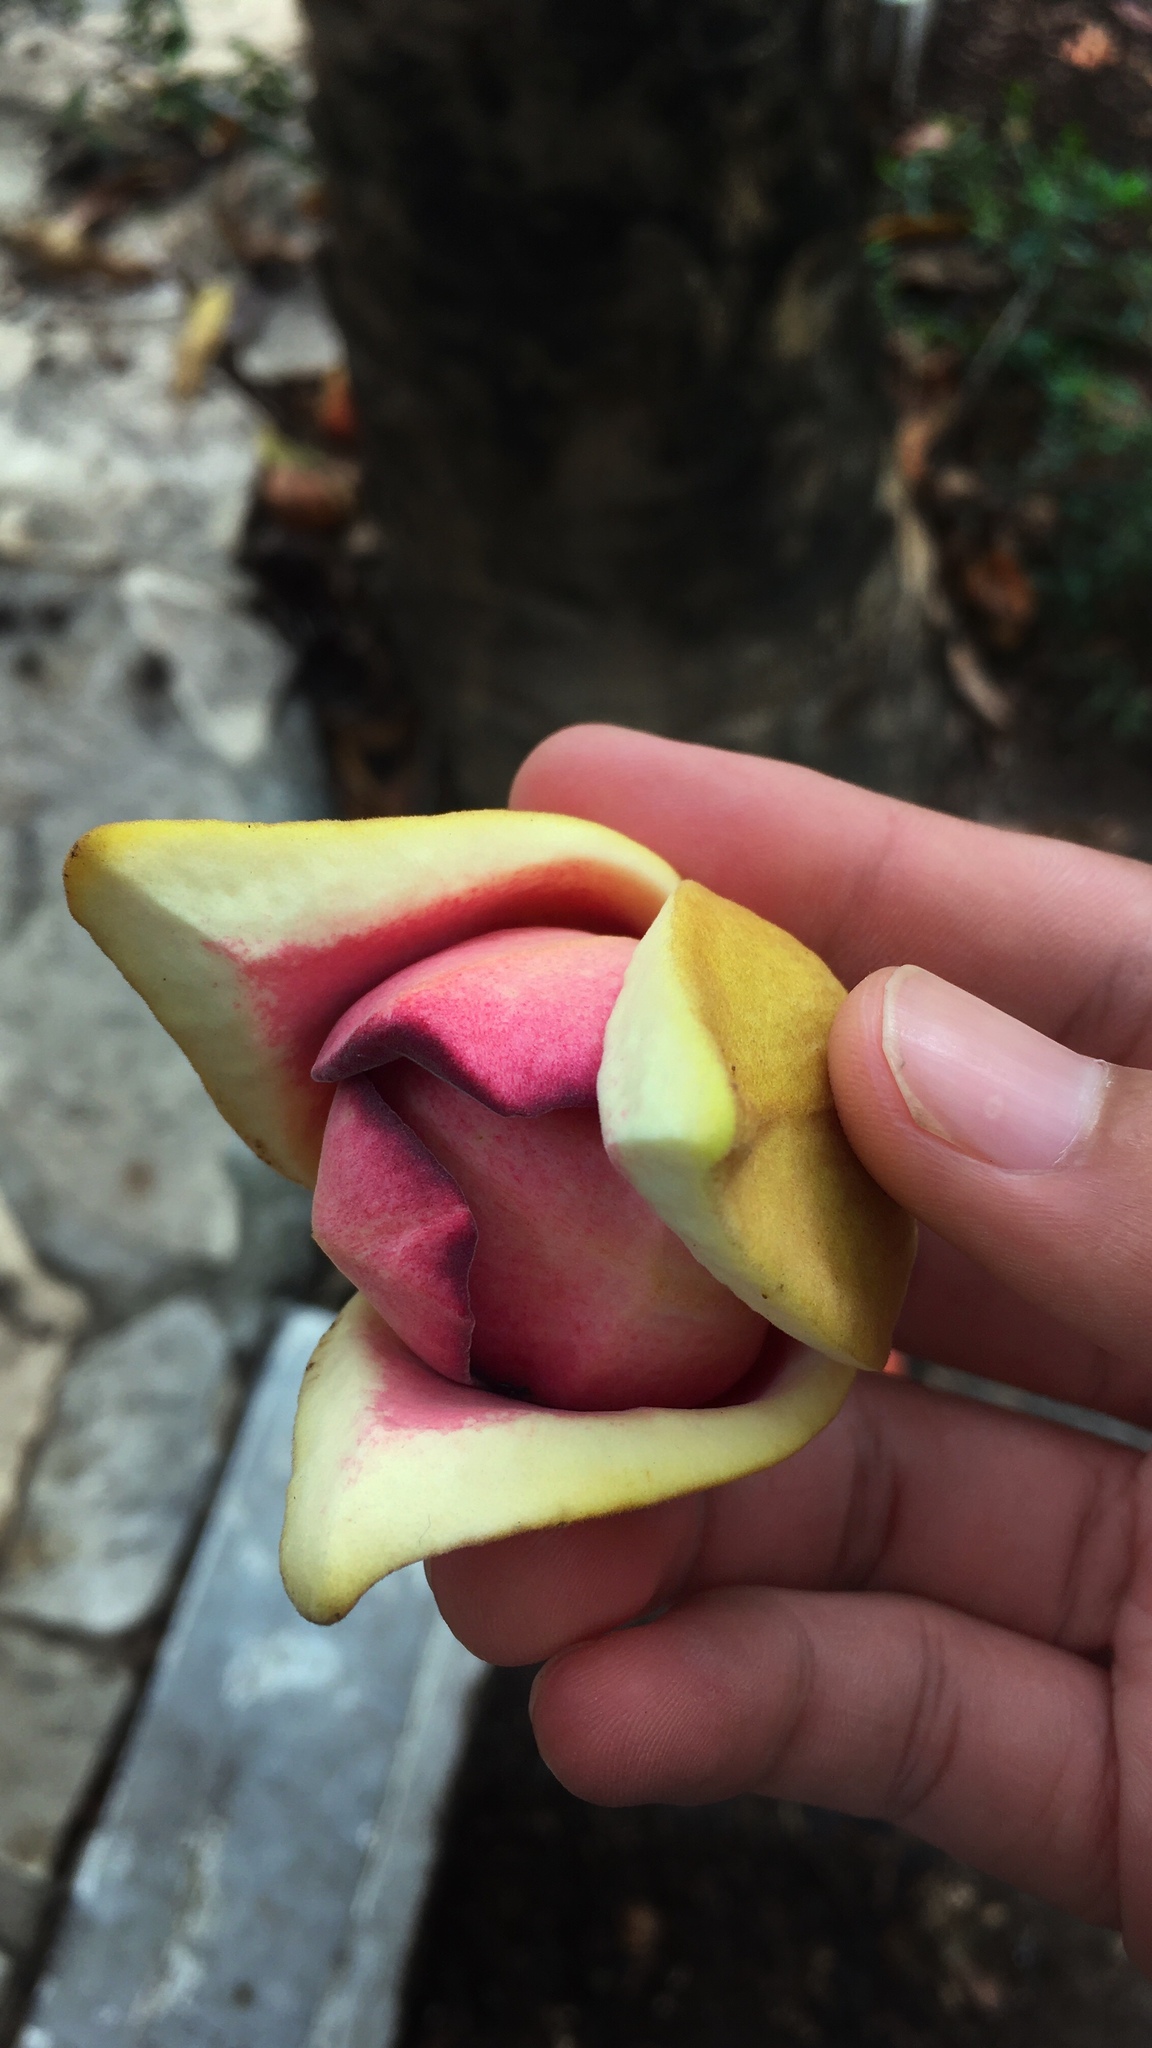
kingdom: Plantae
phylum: Tracheophyta
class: Magnoliopsida
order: Magnoliales
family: Annonaceae
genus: Annona
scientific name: Annona purpurea
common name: Negrohead
